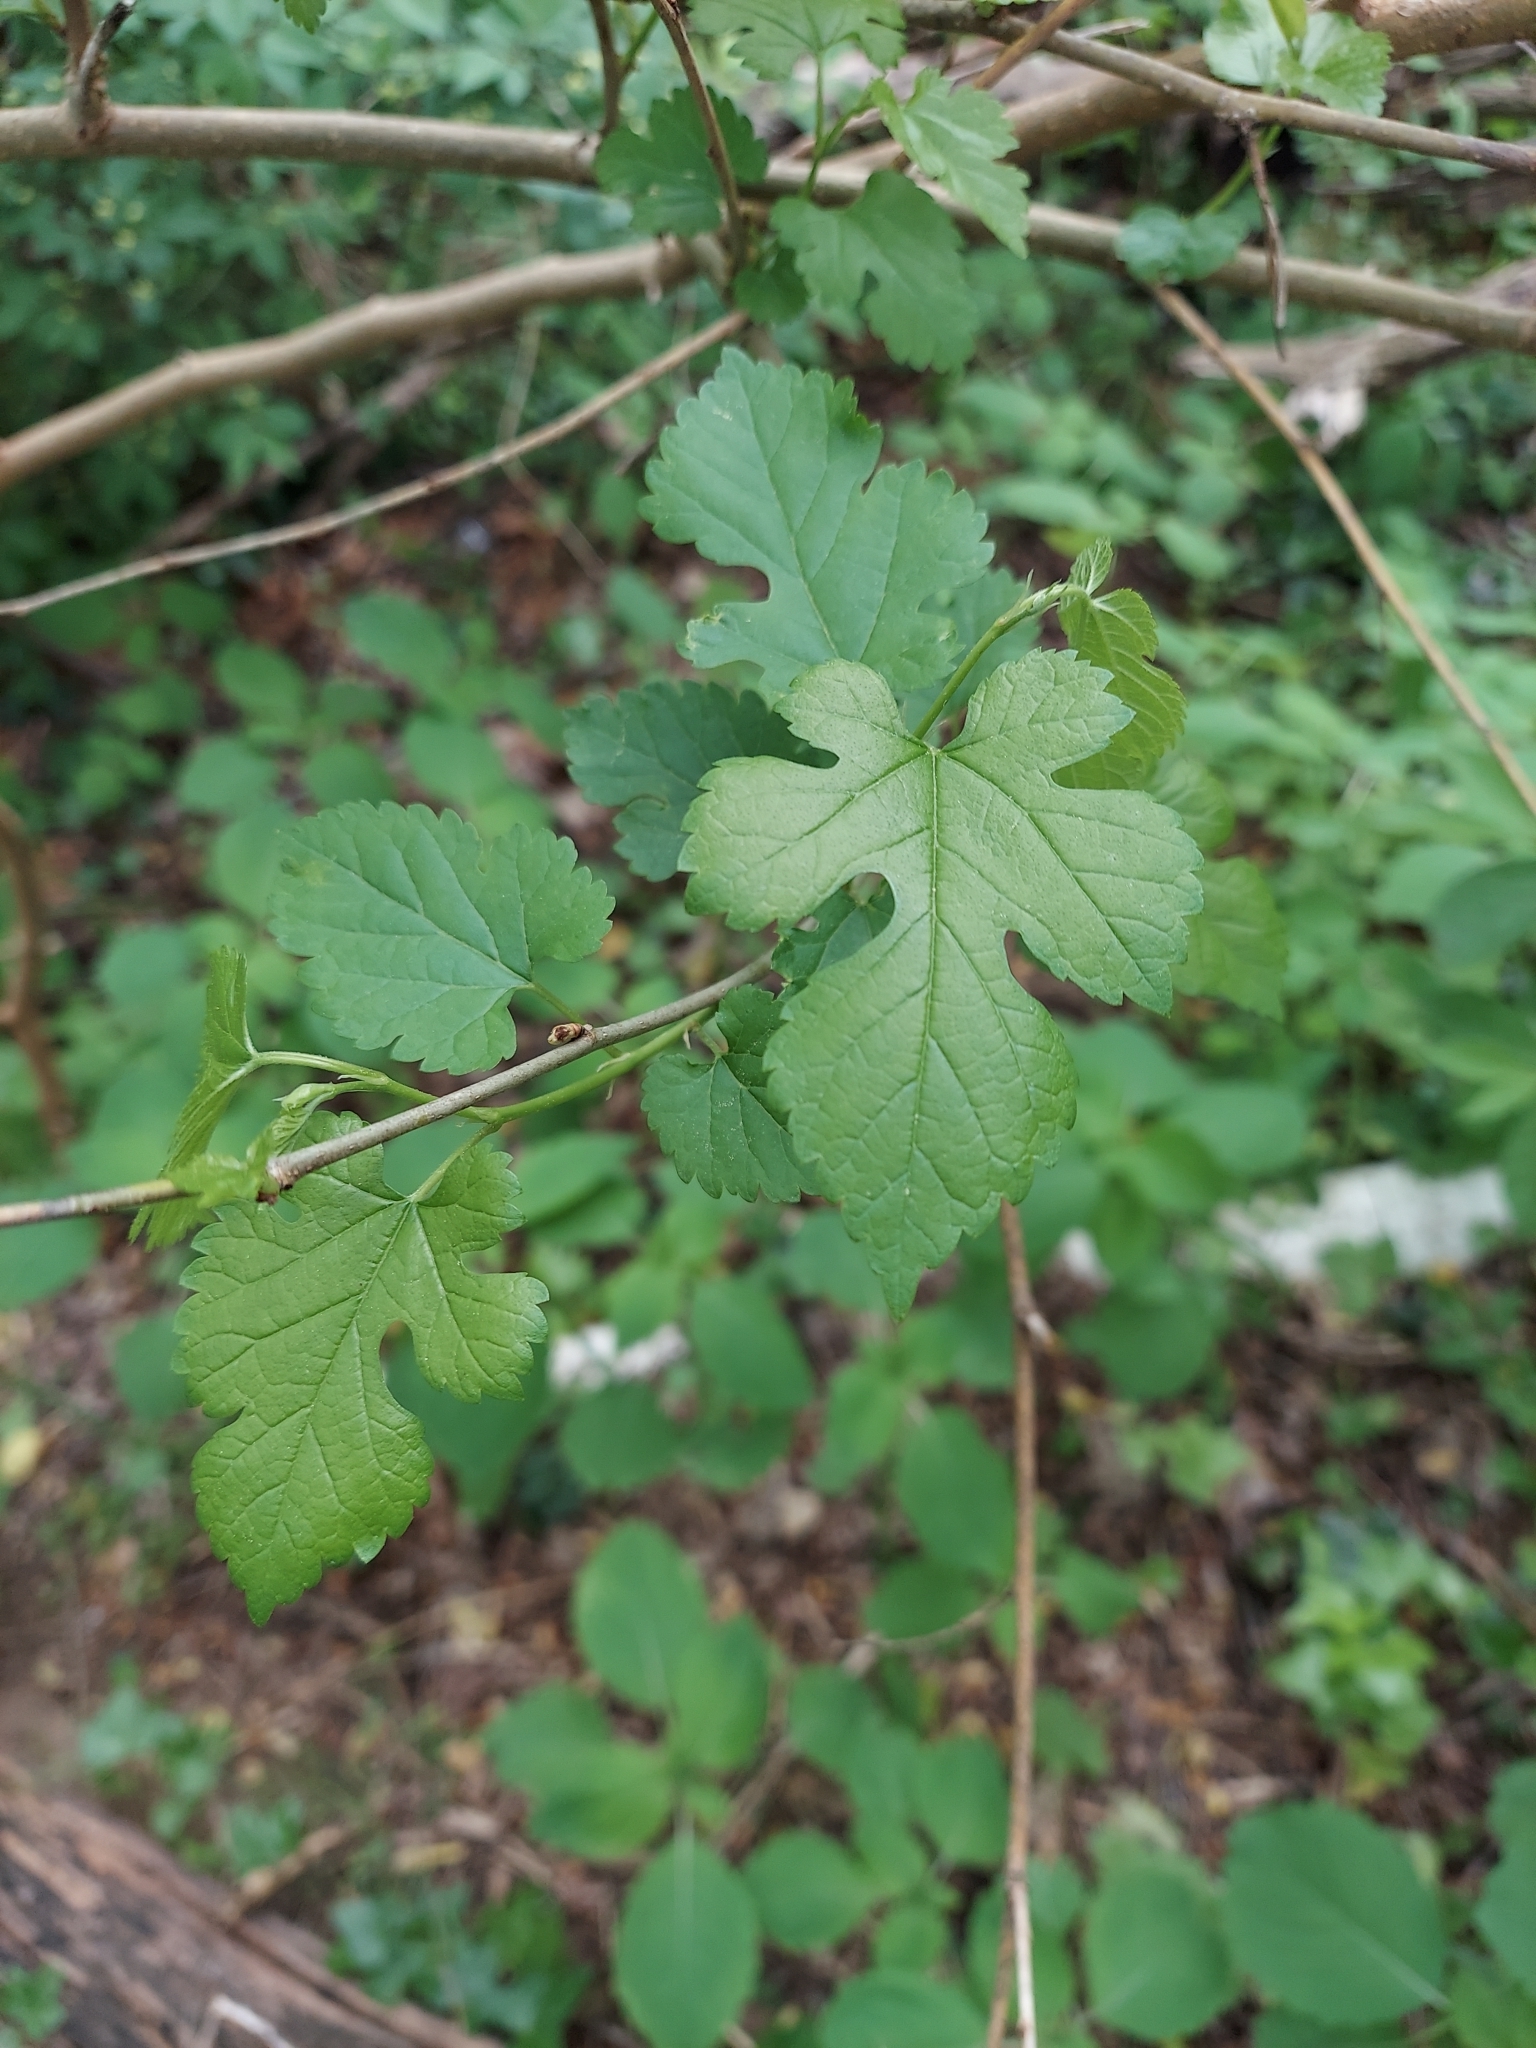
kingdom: Plantae
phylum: Tracheophyta
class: Magnoliopsida
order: Rosales
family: Moraceae
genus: Morus
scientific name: Morus alba
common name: White mulberry
